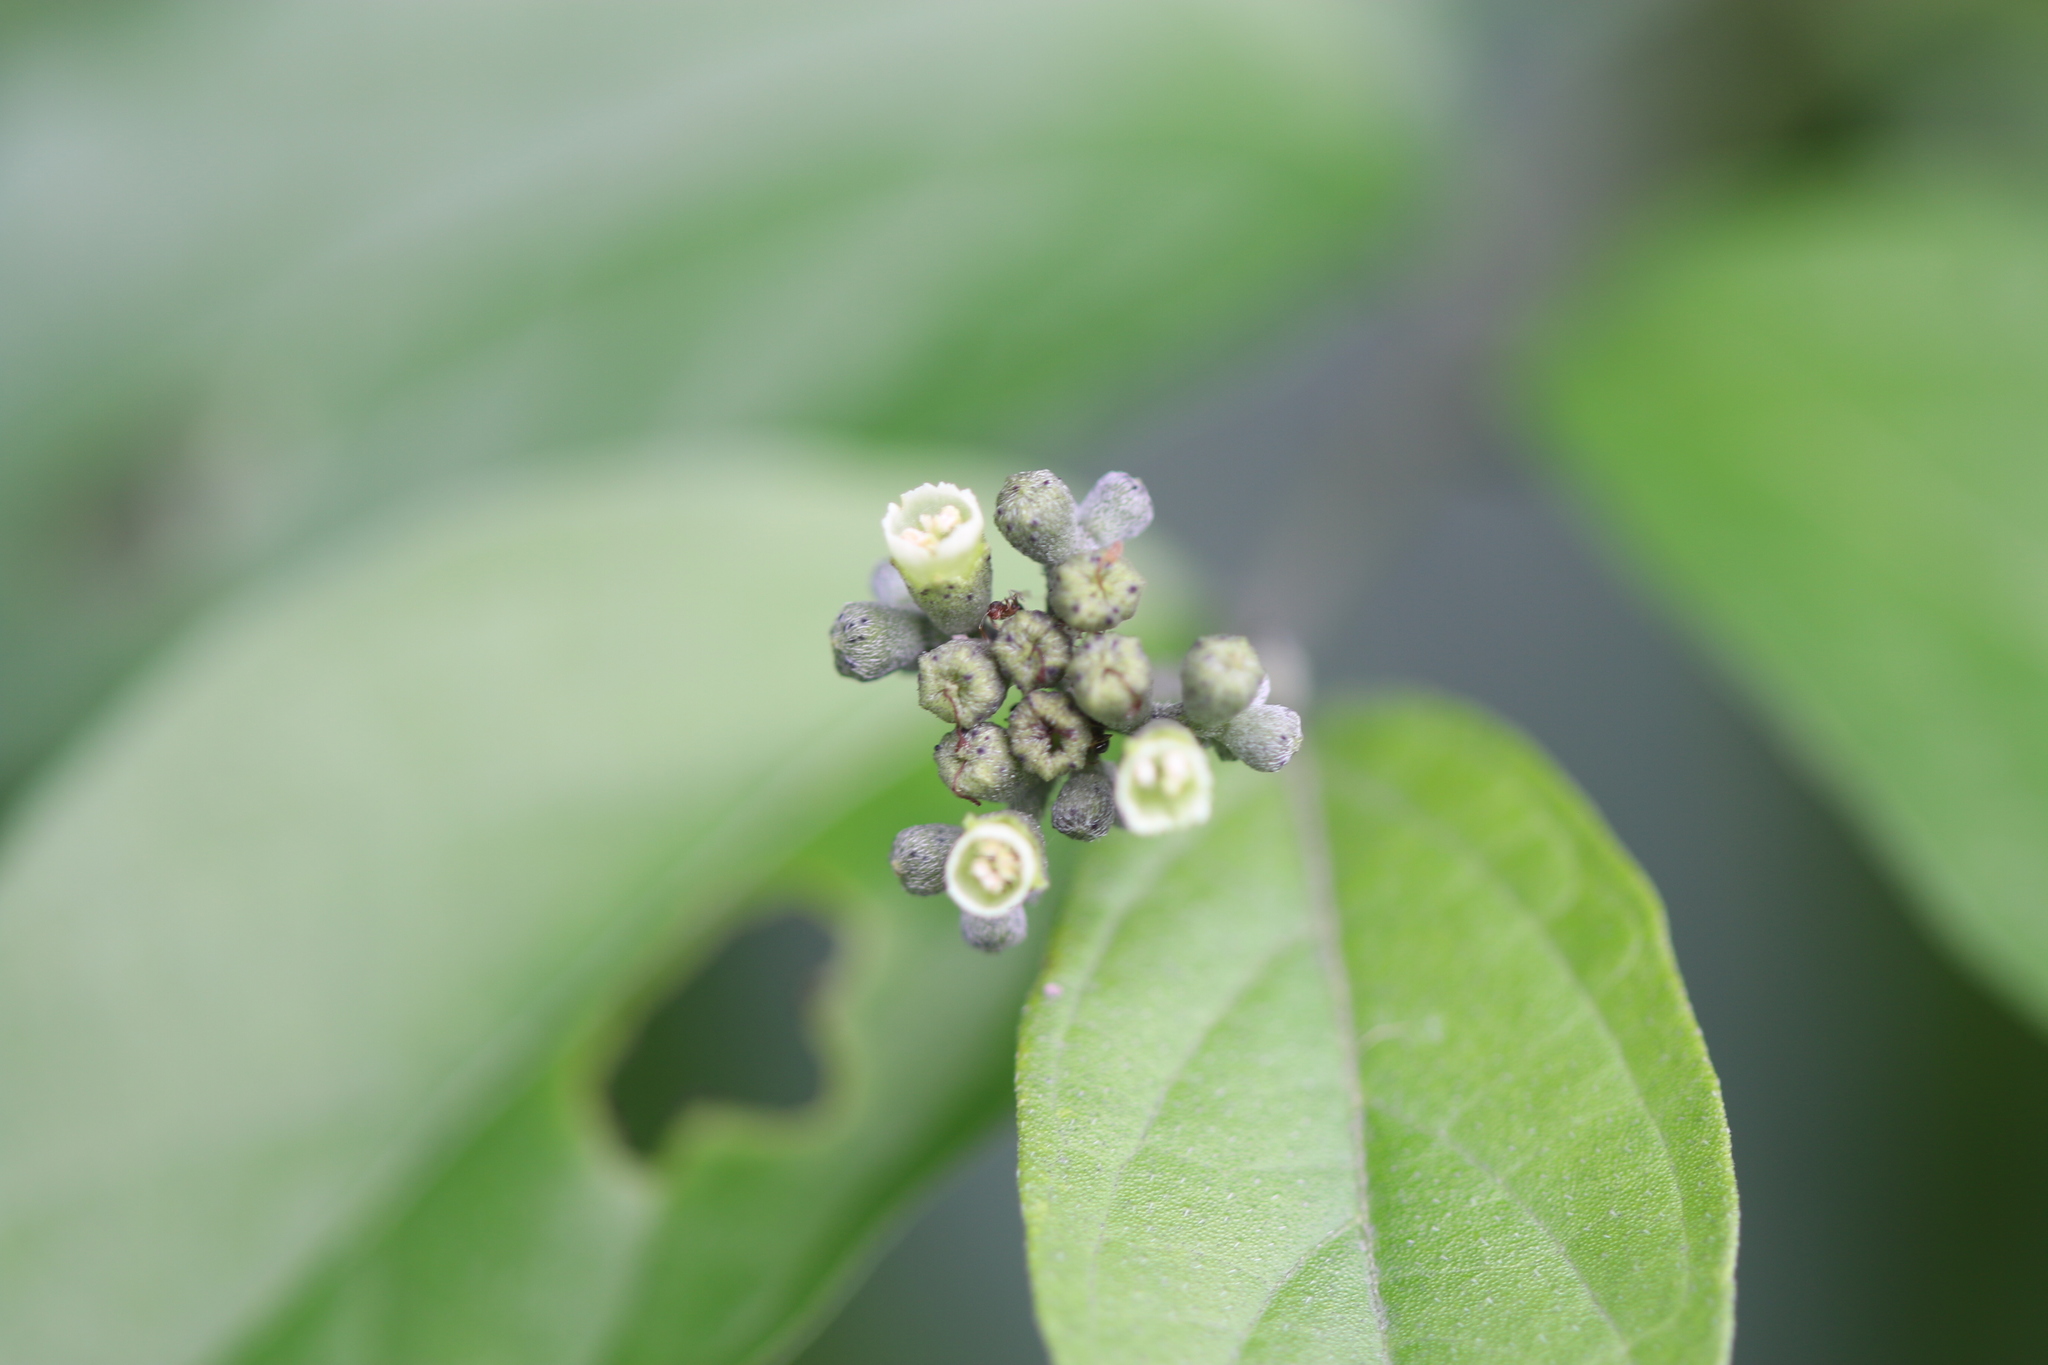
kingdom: Plantae
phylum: Tracheophyta
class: Magnoliopsida
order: Boraginales
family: Cordiaceae
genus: Varronia
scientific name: Varronia spinescens
